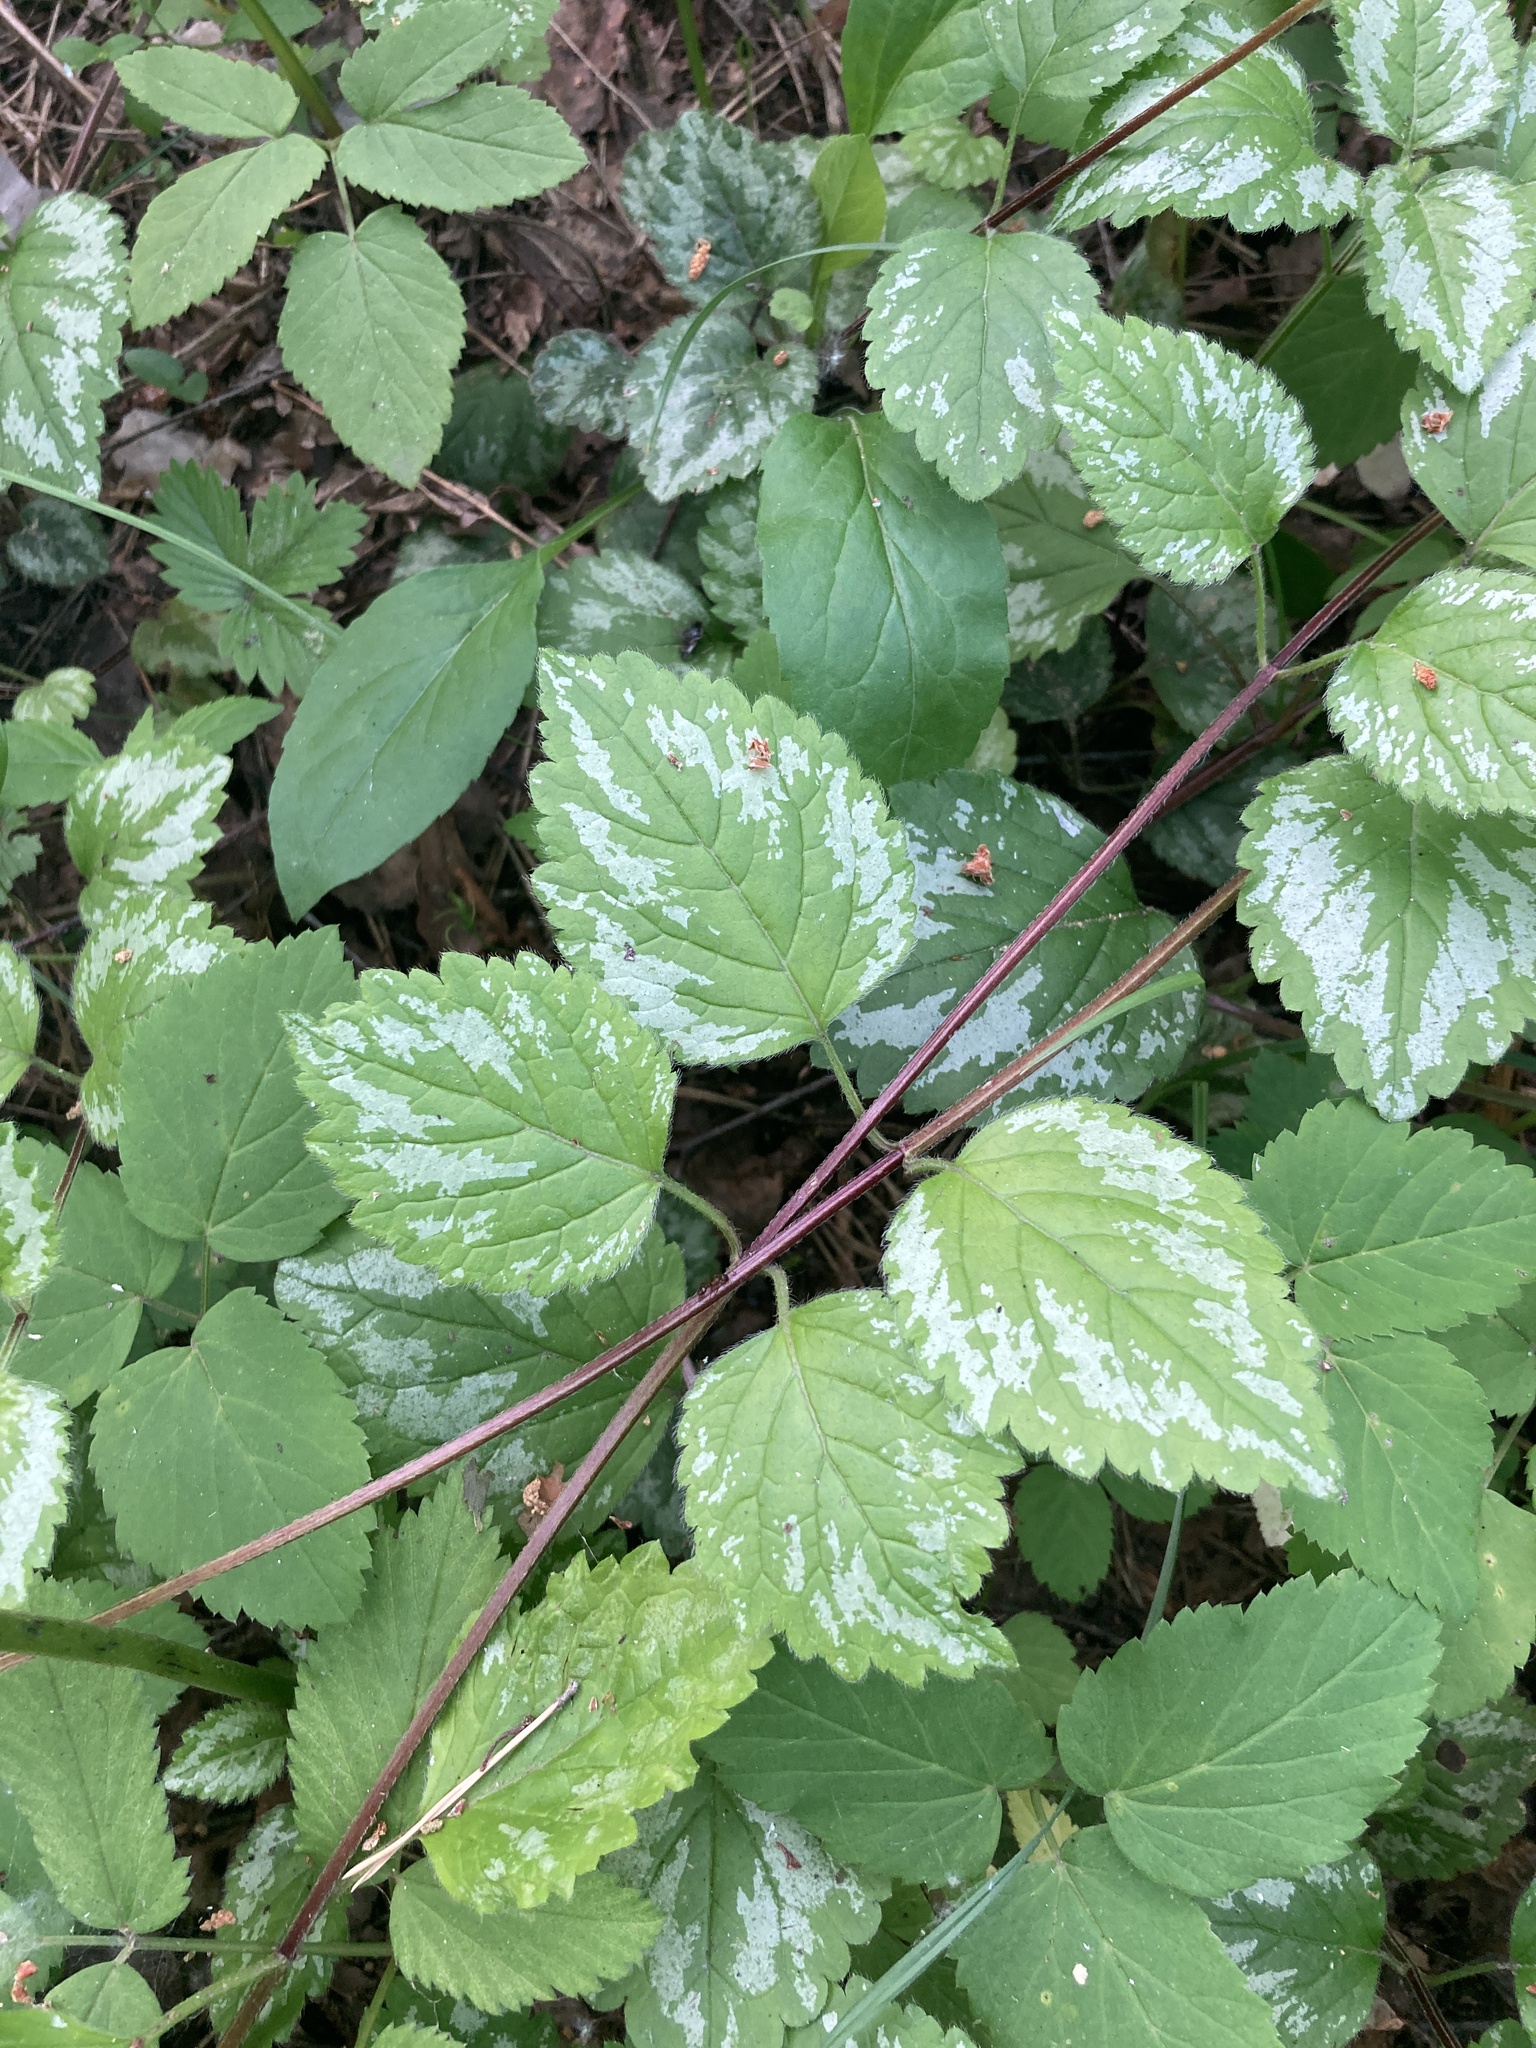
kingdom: Plantae
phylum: Tracheophyta
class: Magnoliopsida
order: Lamiales
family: Lamiaceae
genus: Lamium
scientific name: Lamium galeobdolon
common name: Yellow archangel
